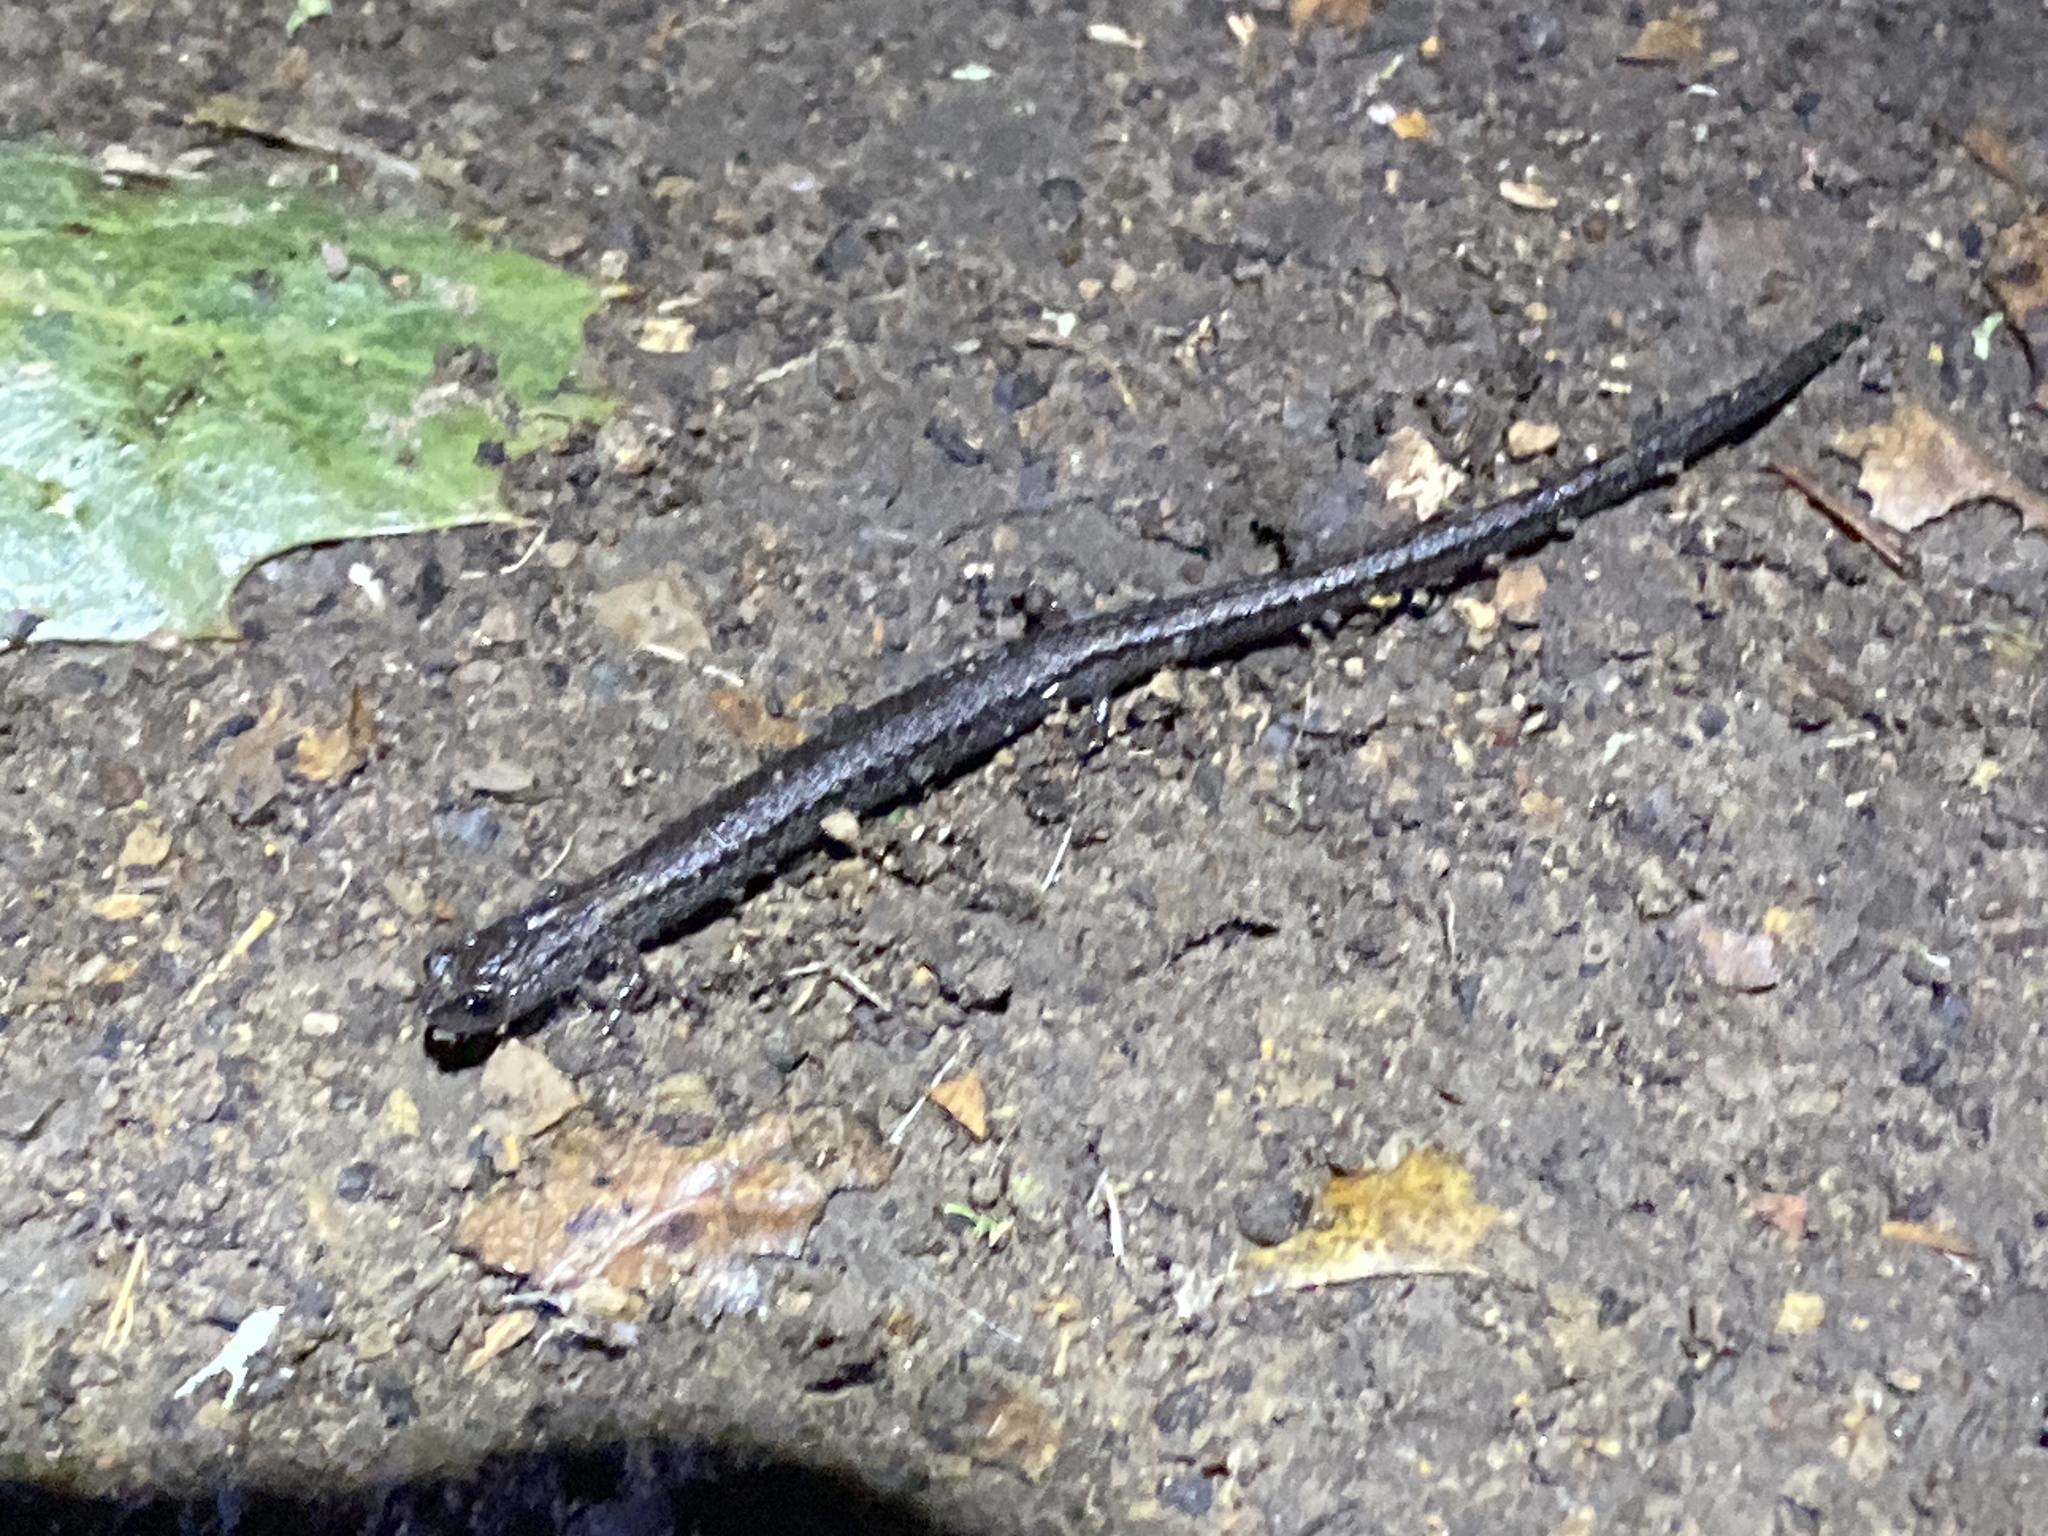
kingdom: Animalia
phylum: Chordata
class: Amphibia
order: Caudata
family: Plethodontidae
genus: Batrachoseps
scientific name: Batrachoseps attenuatus
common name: California slender salamander
